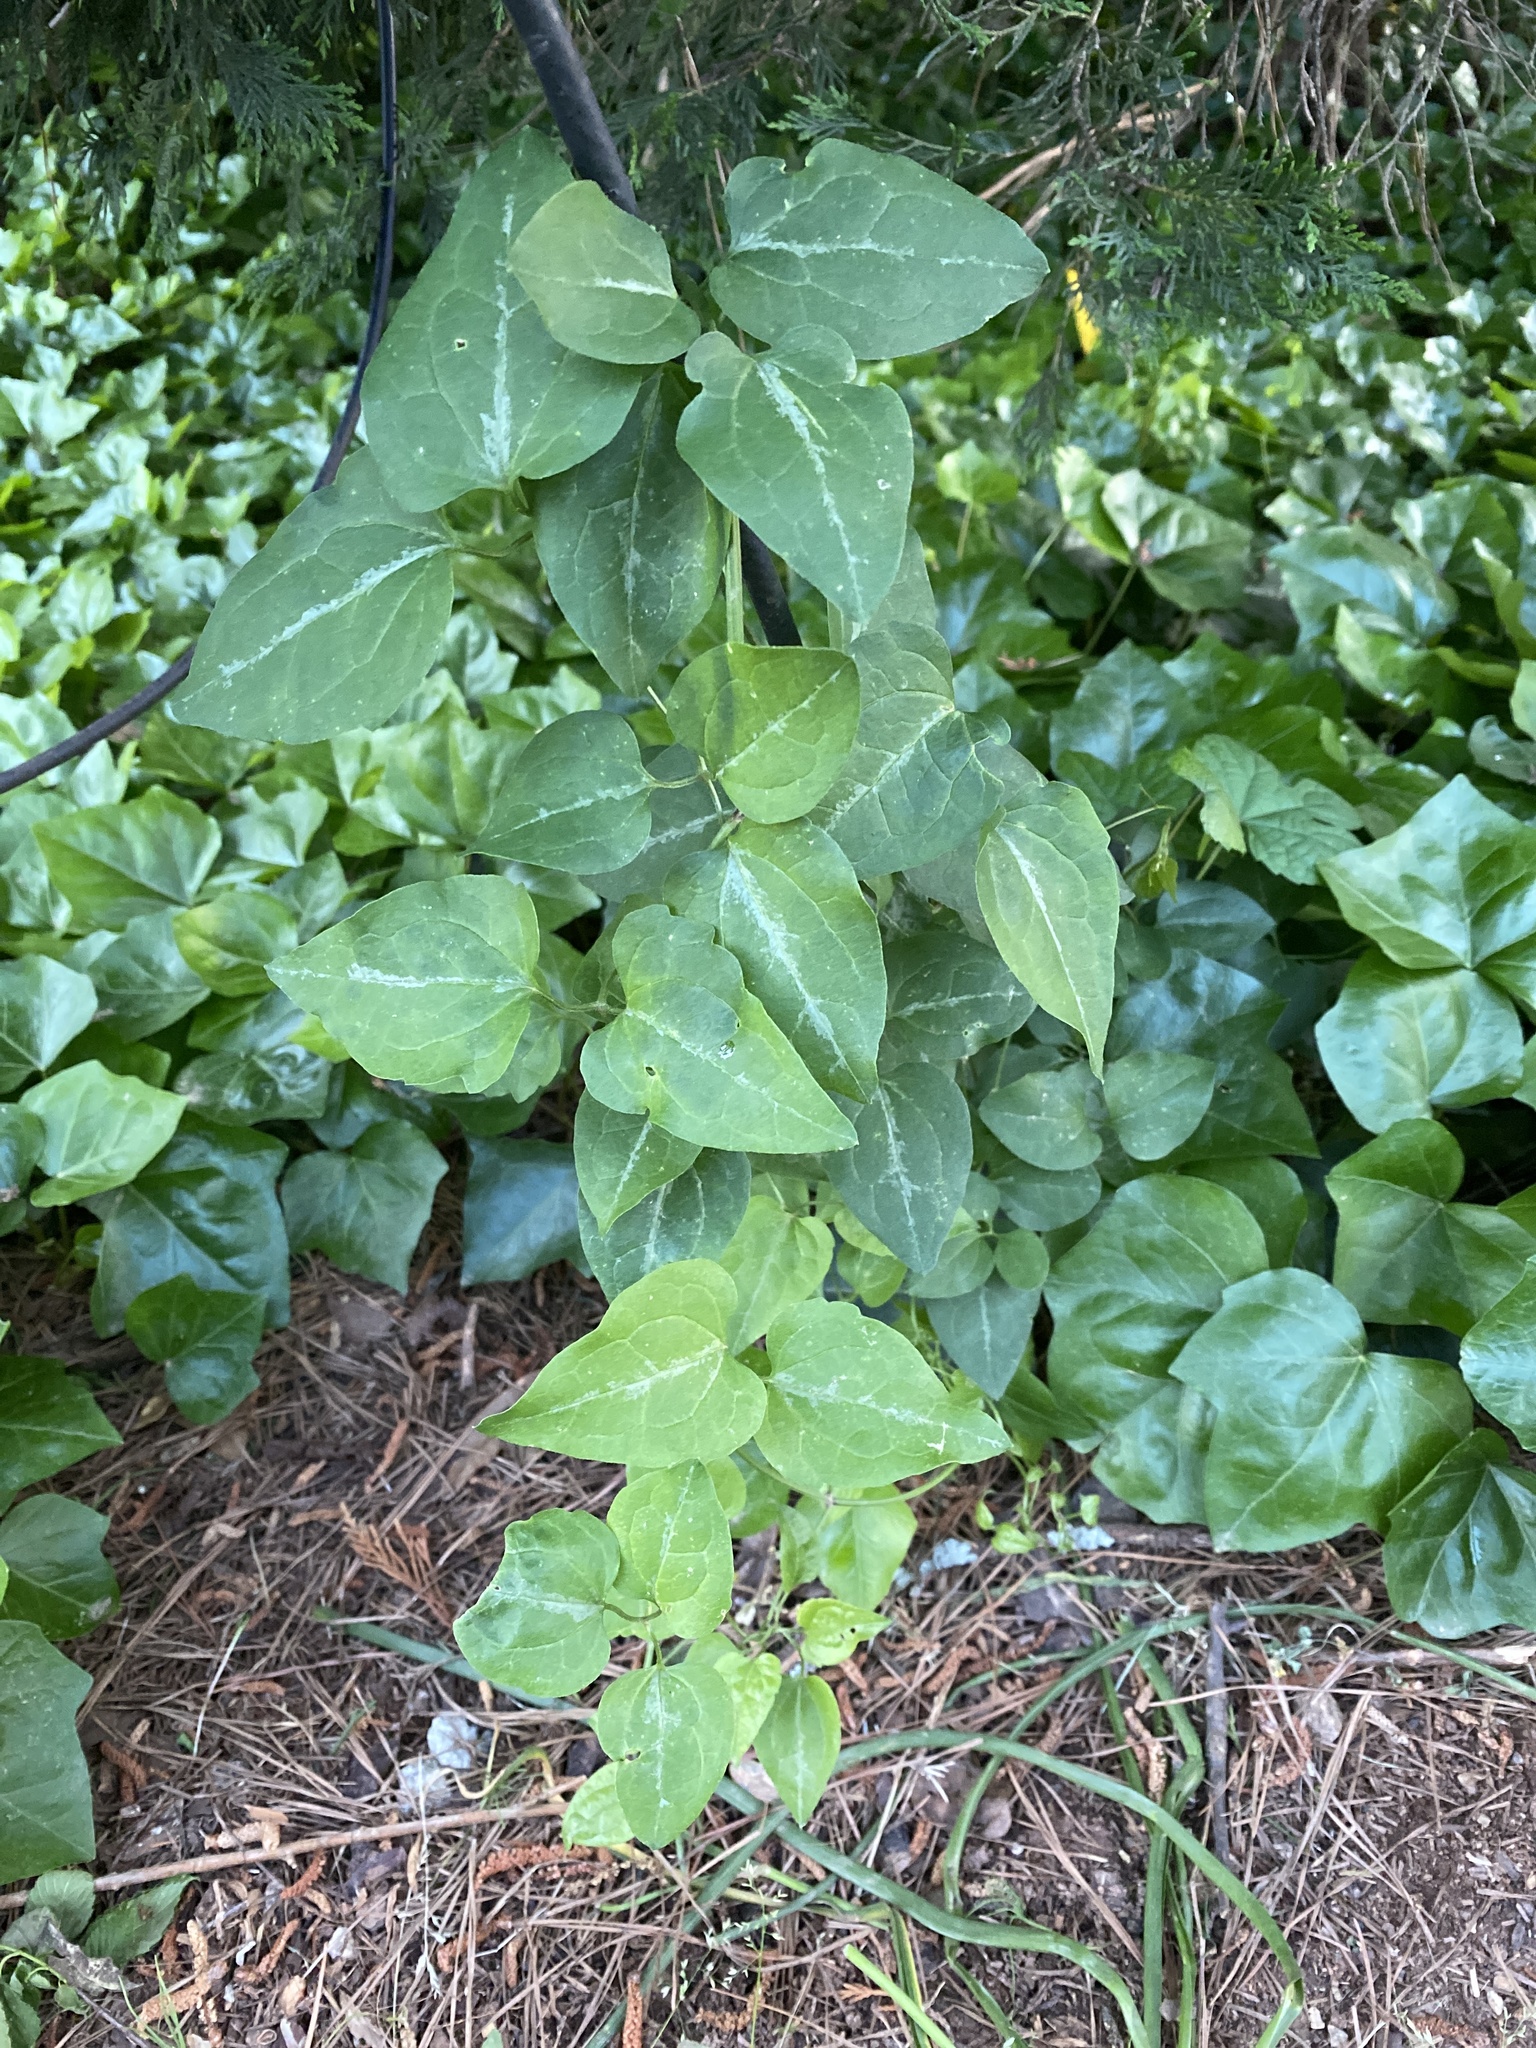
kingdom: Plantae
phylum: Tracheophyta
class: Magnoliopsida
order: Ranunculales
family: Ranunculaceae
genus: Clematis
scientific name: Clematis terniflora
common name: Sweet autumn clematis
